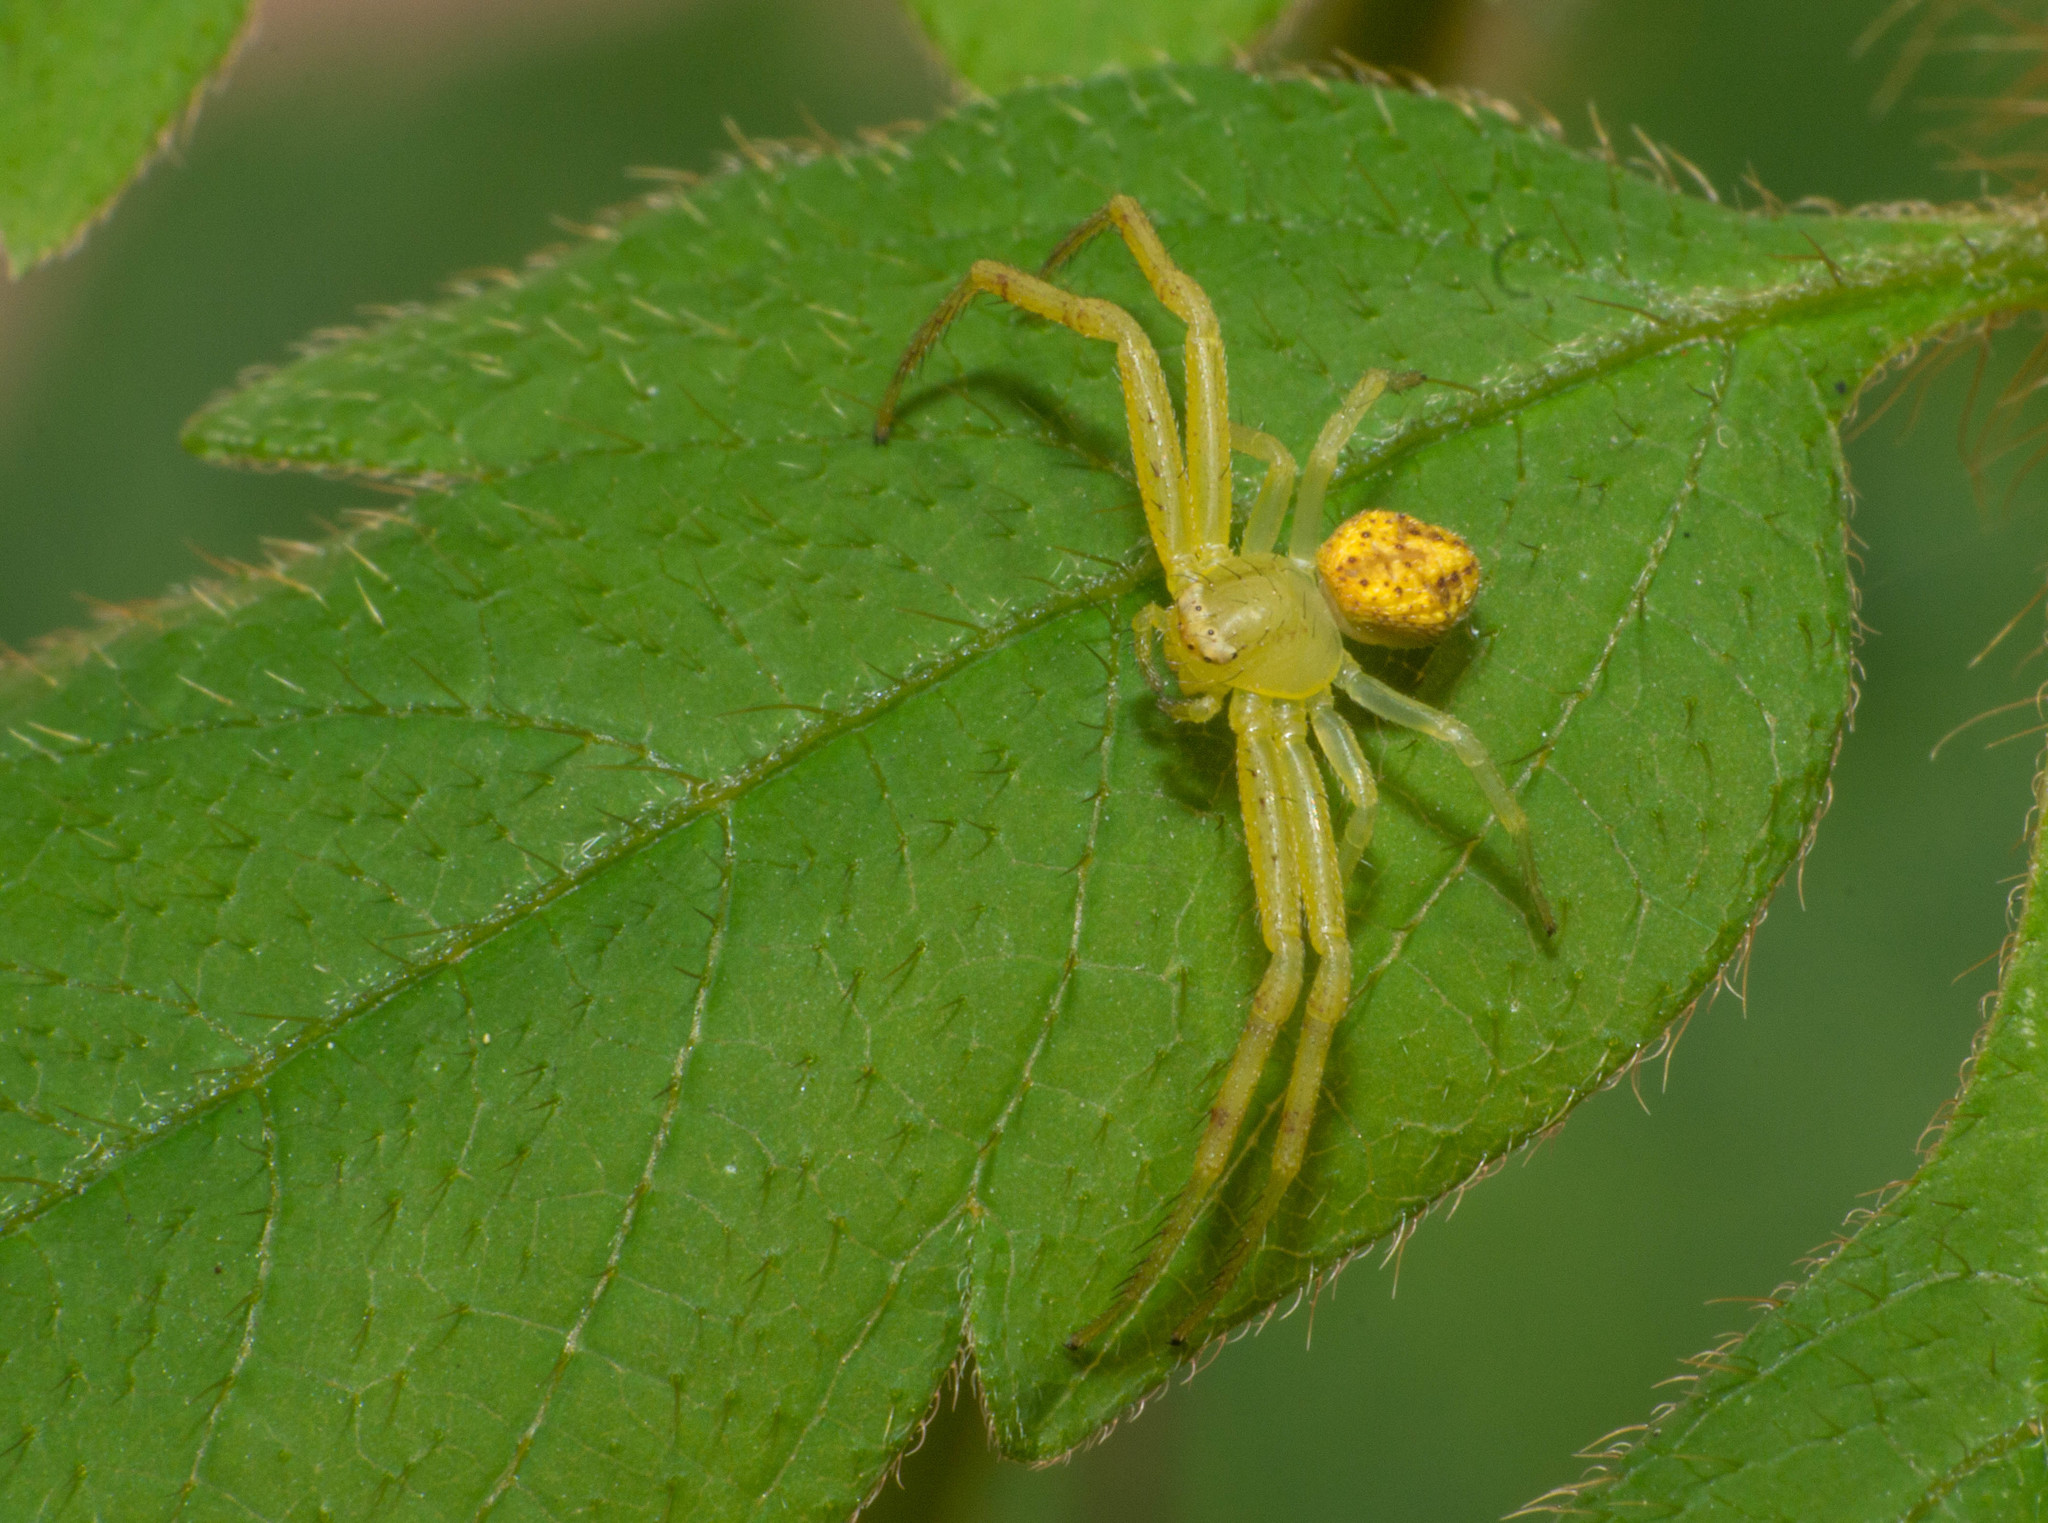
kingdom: Animalia
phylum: Arthropoda
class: Arachnida
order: Araneae
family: Thomisidae
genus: Misumenops
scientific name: Misumenops
